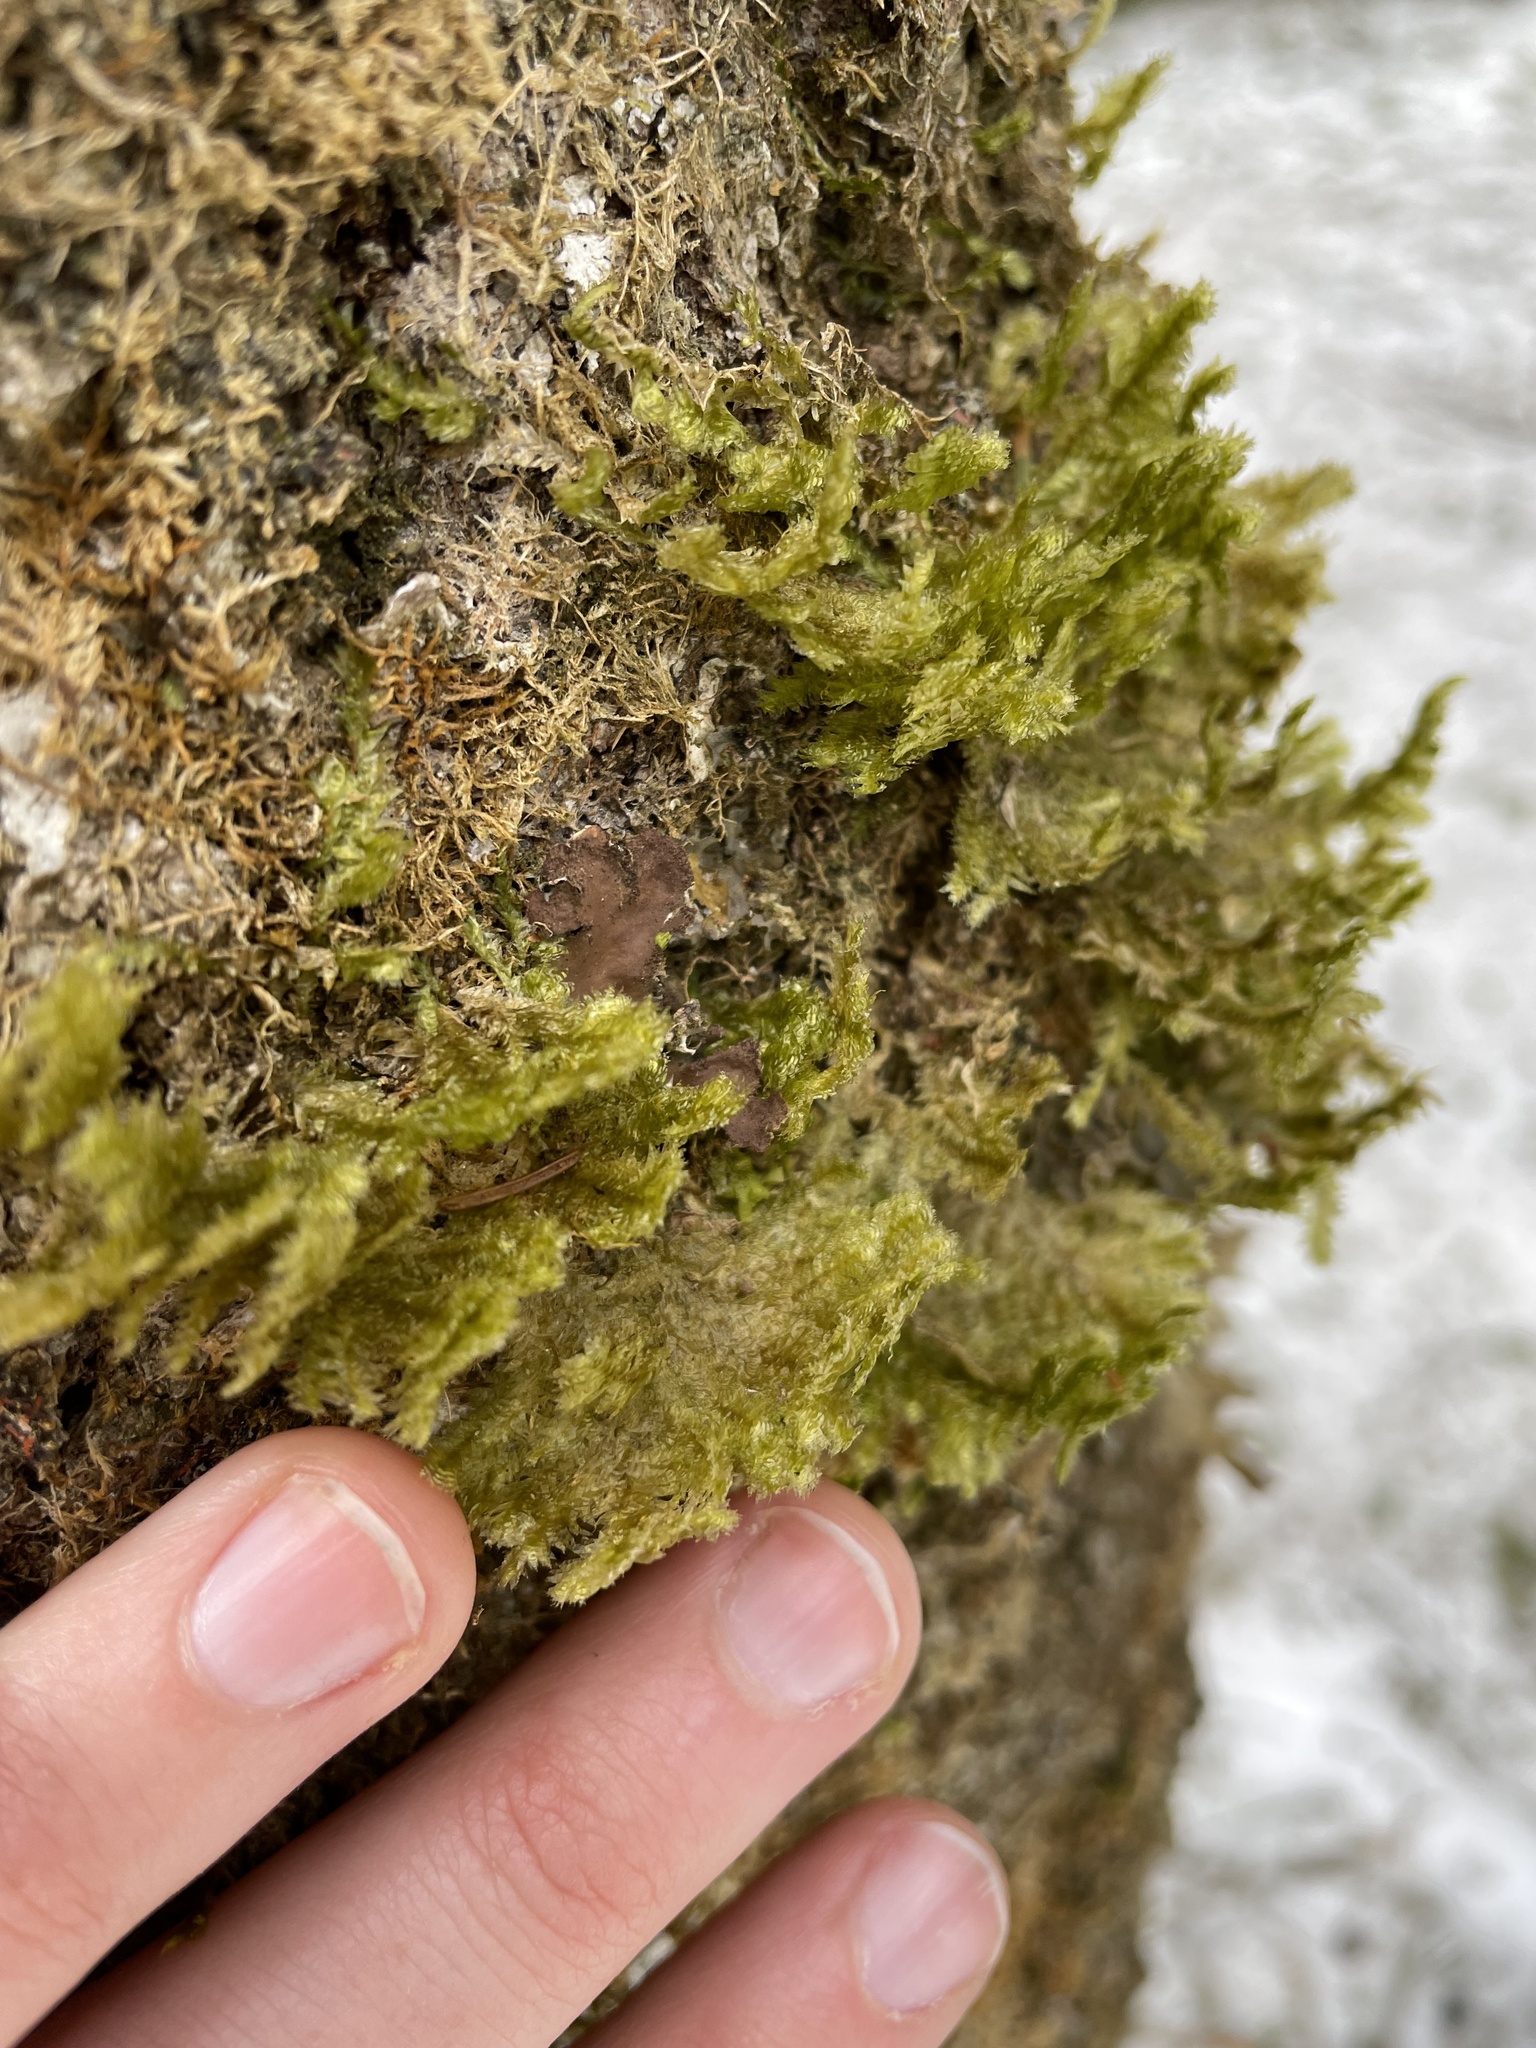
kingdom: Plantae
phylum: Bryophyta
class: Bryopsida
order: Hypnales
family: Neckeraceae
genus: Neckera
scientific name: Neckera pennata
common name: Feathery neckera
